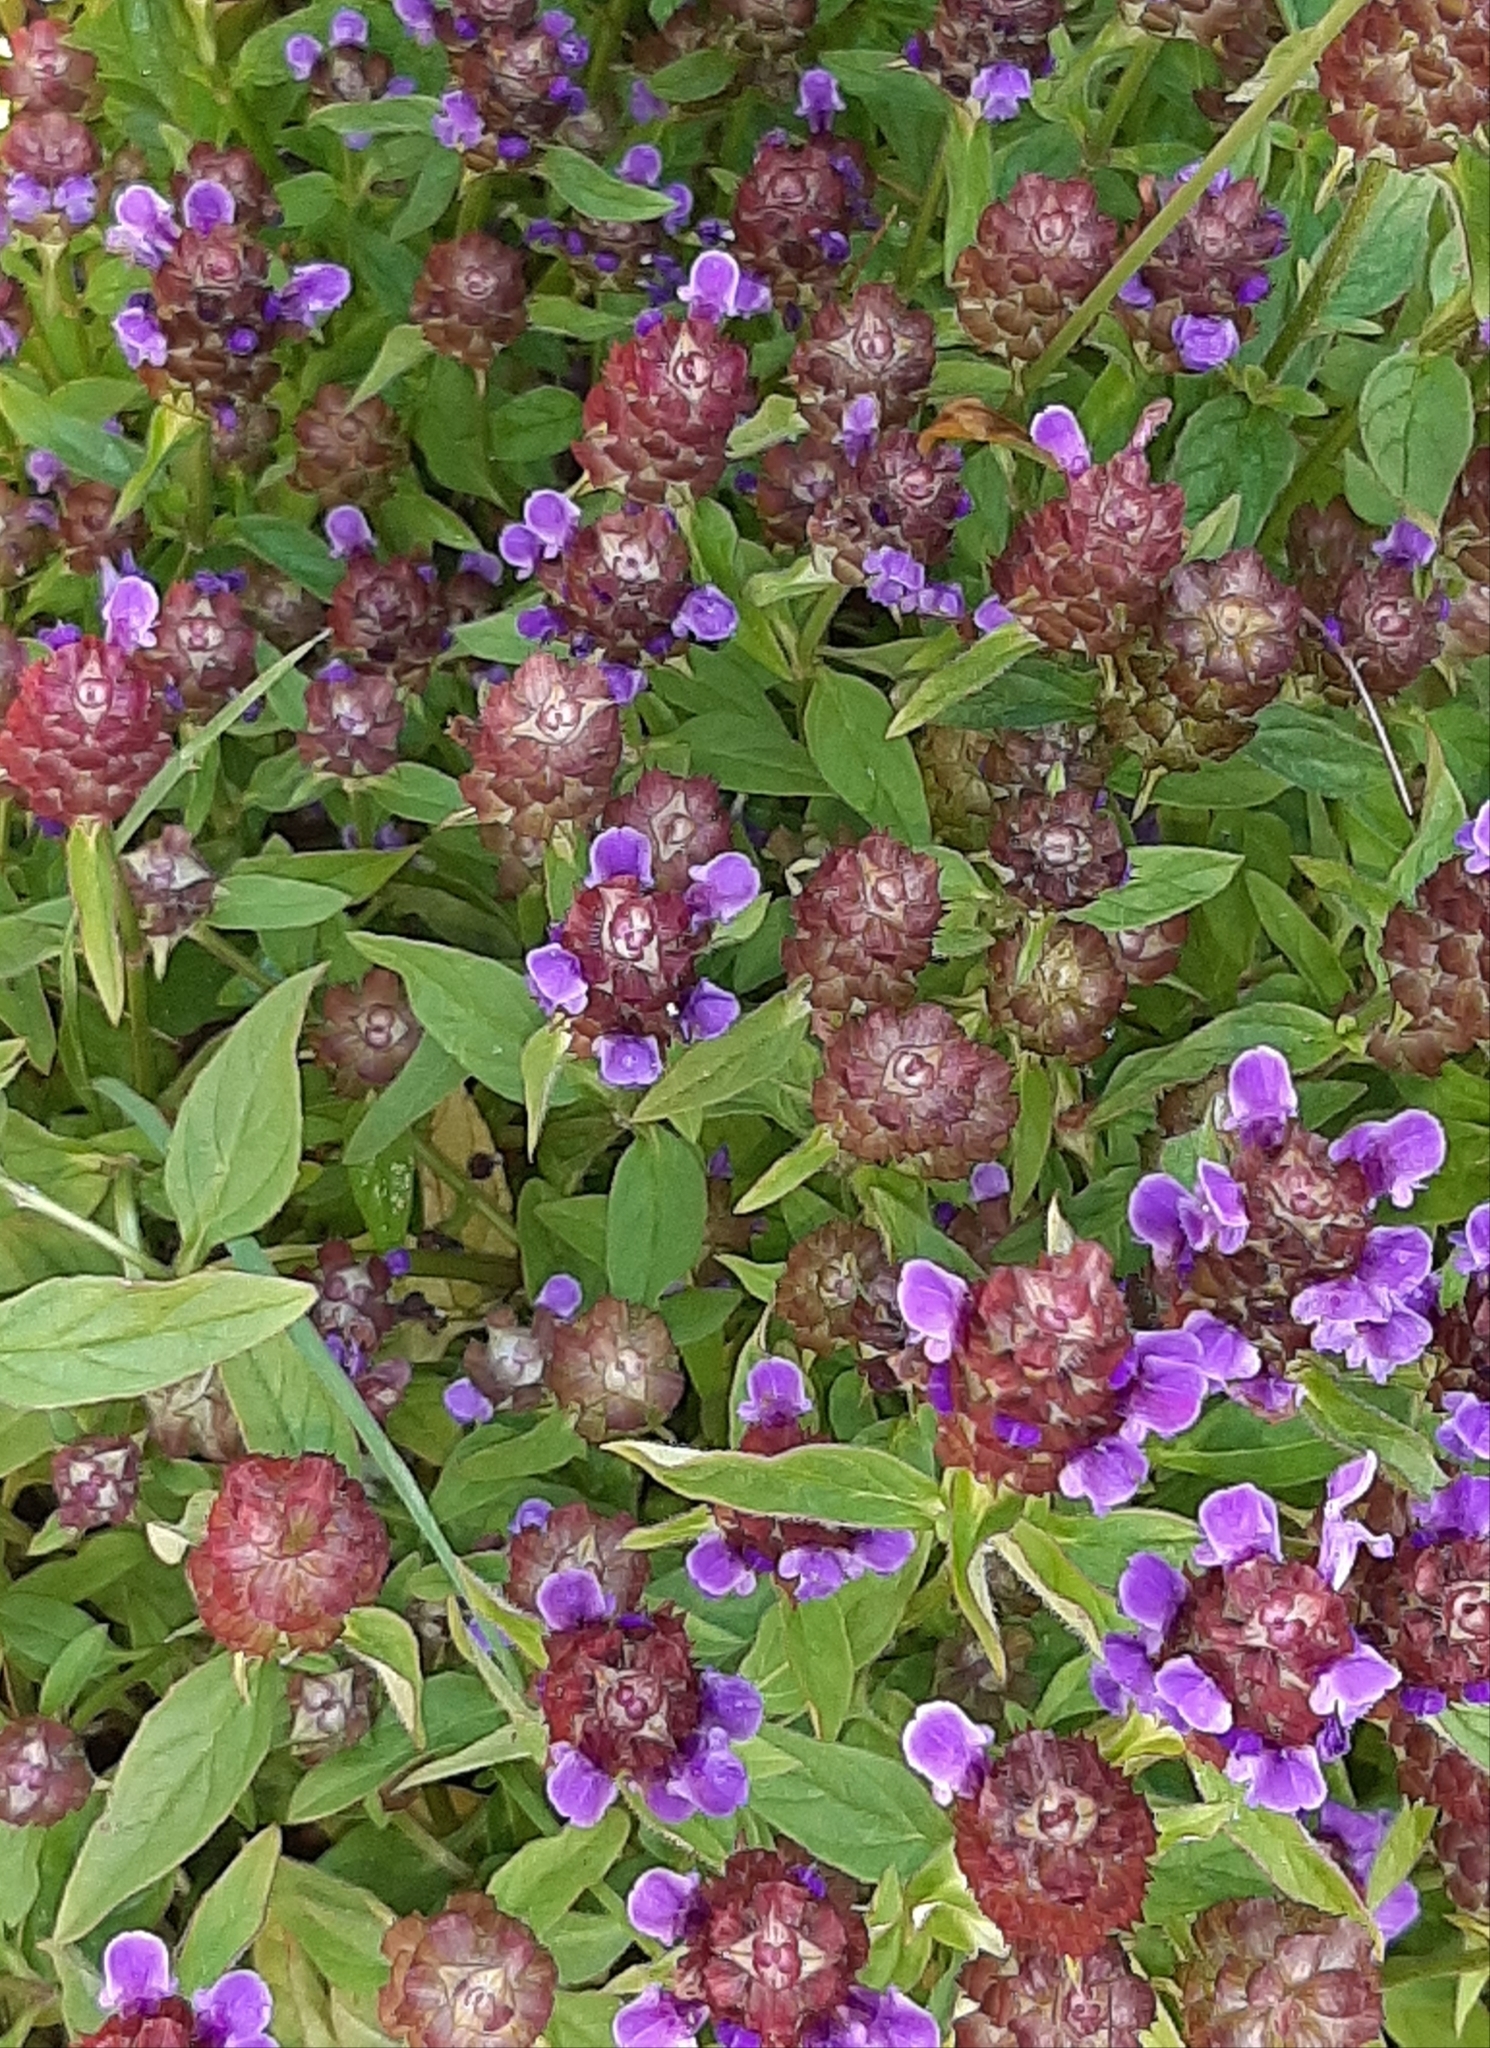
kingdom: Plantae
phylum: Tracheophyta
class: Magnoliopsida
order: Lamiales
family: Lamiaceae
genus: Prunella
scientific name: Prunella vulgaris
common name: Heal-all
